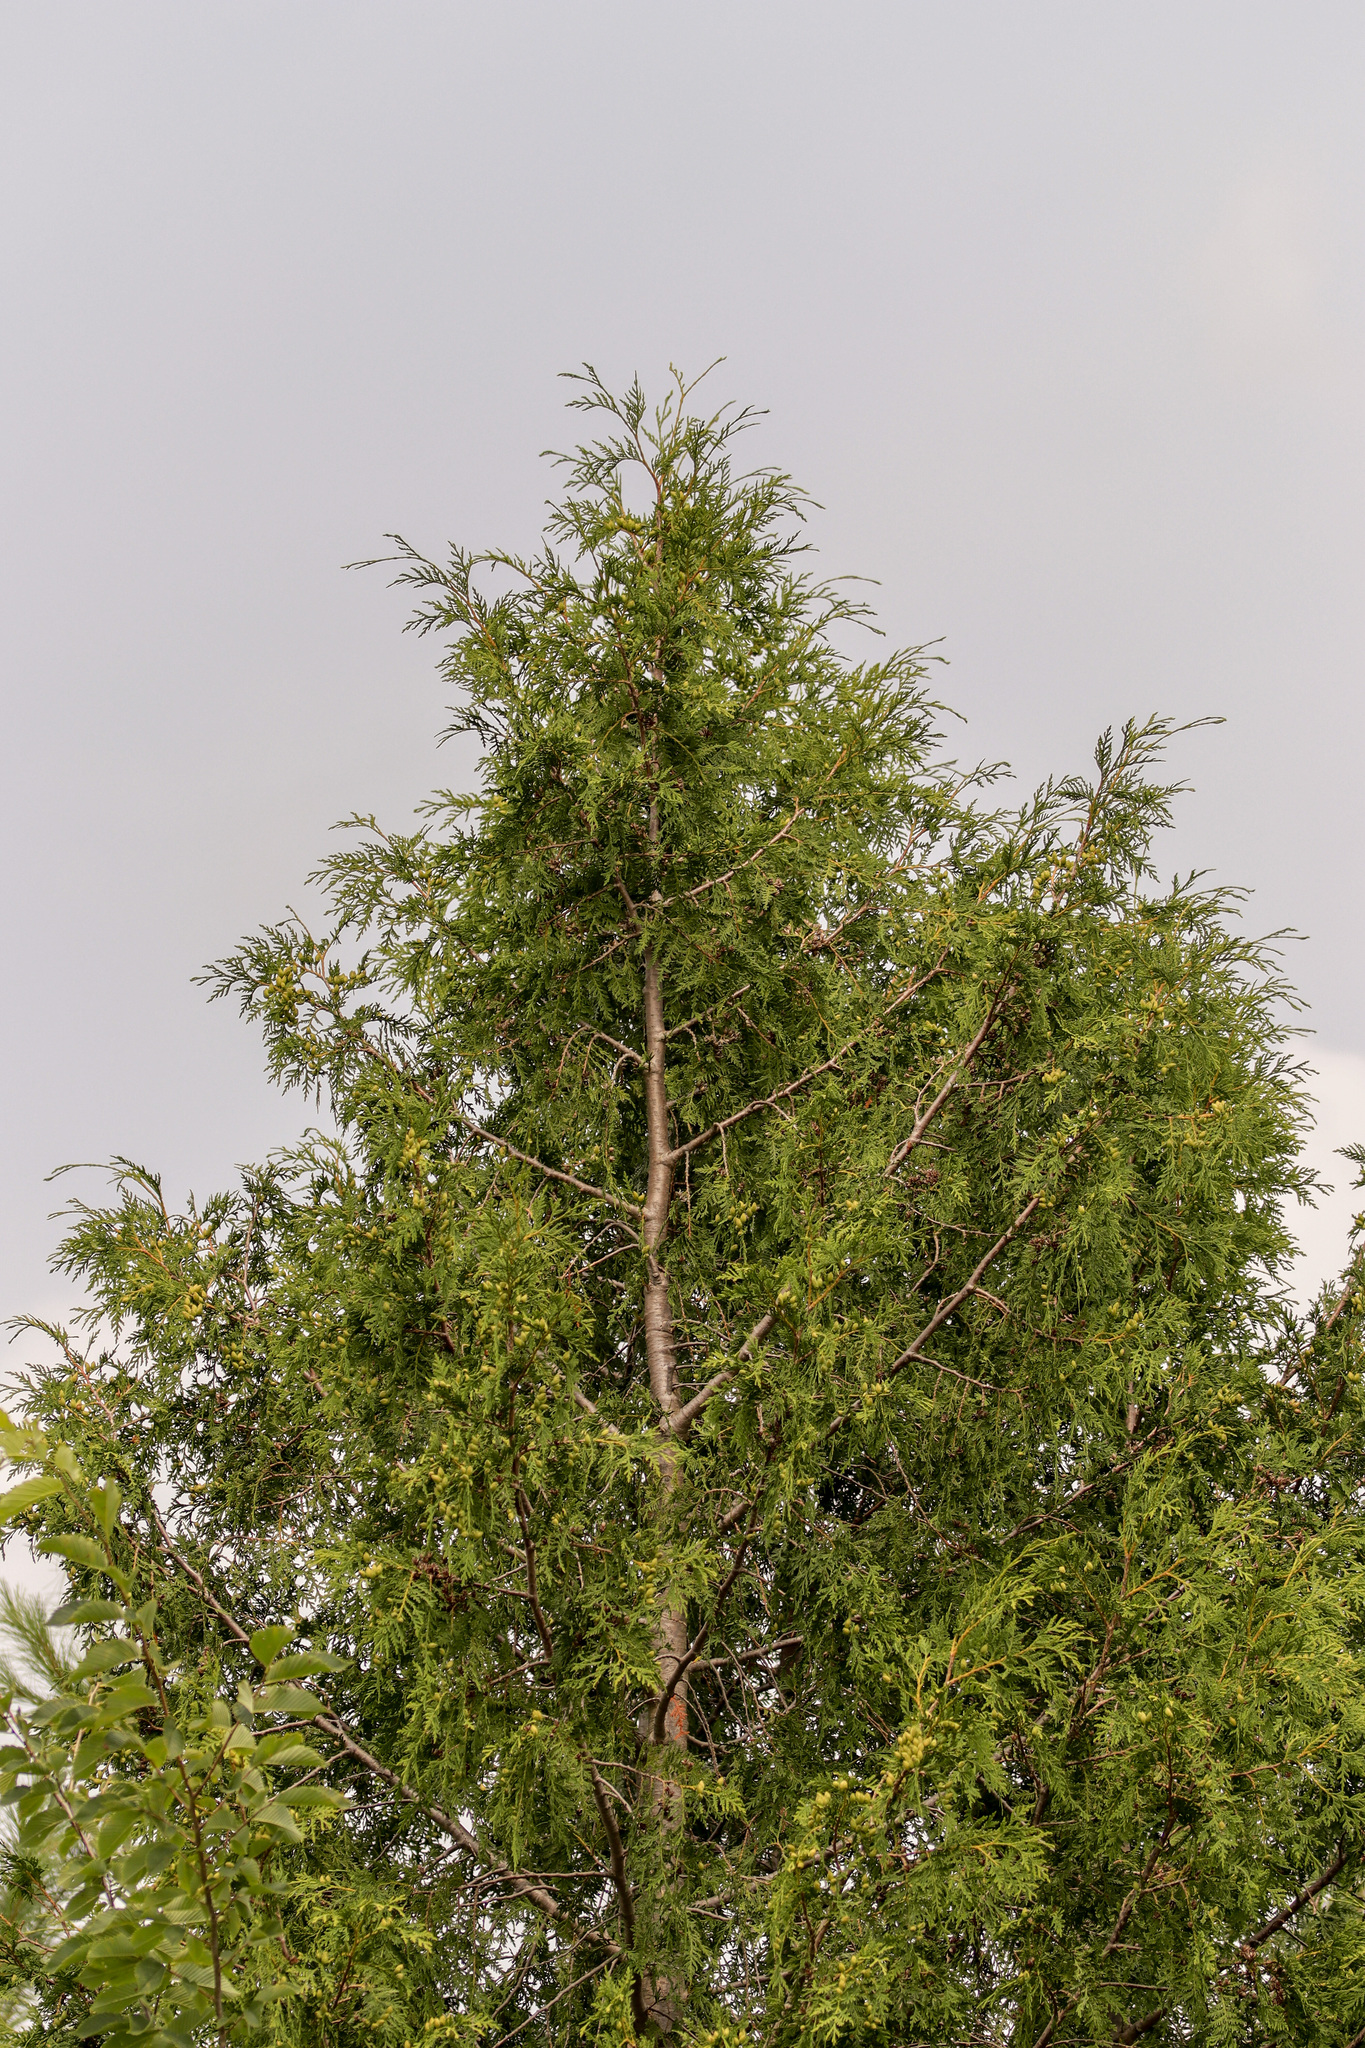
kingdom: Plantae
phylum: Tracheophyta
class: Pinopsida
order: Pinales
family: Cupressaceae
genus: Thuja
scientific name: Thuja occidentalis
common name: Northern white-cedar
